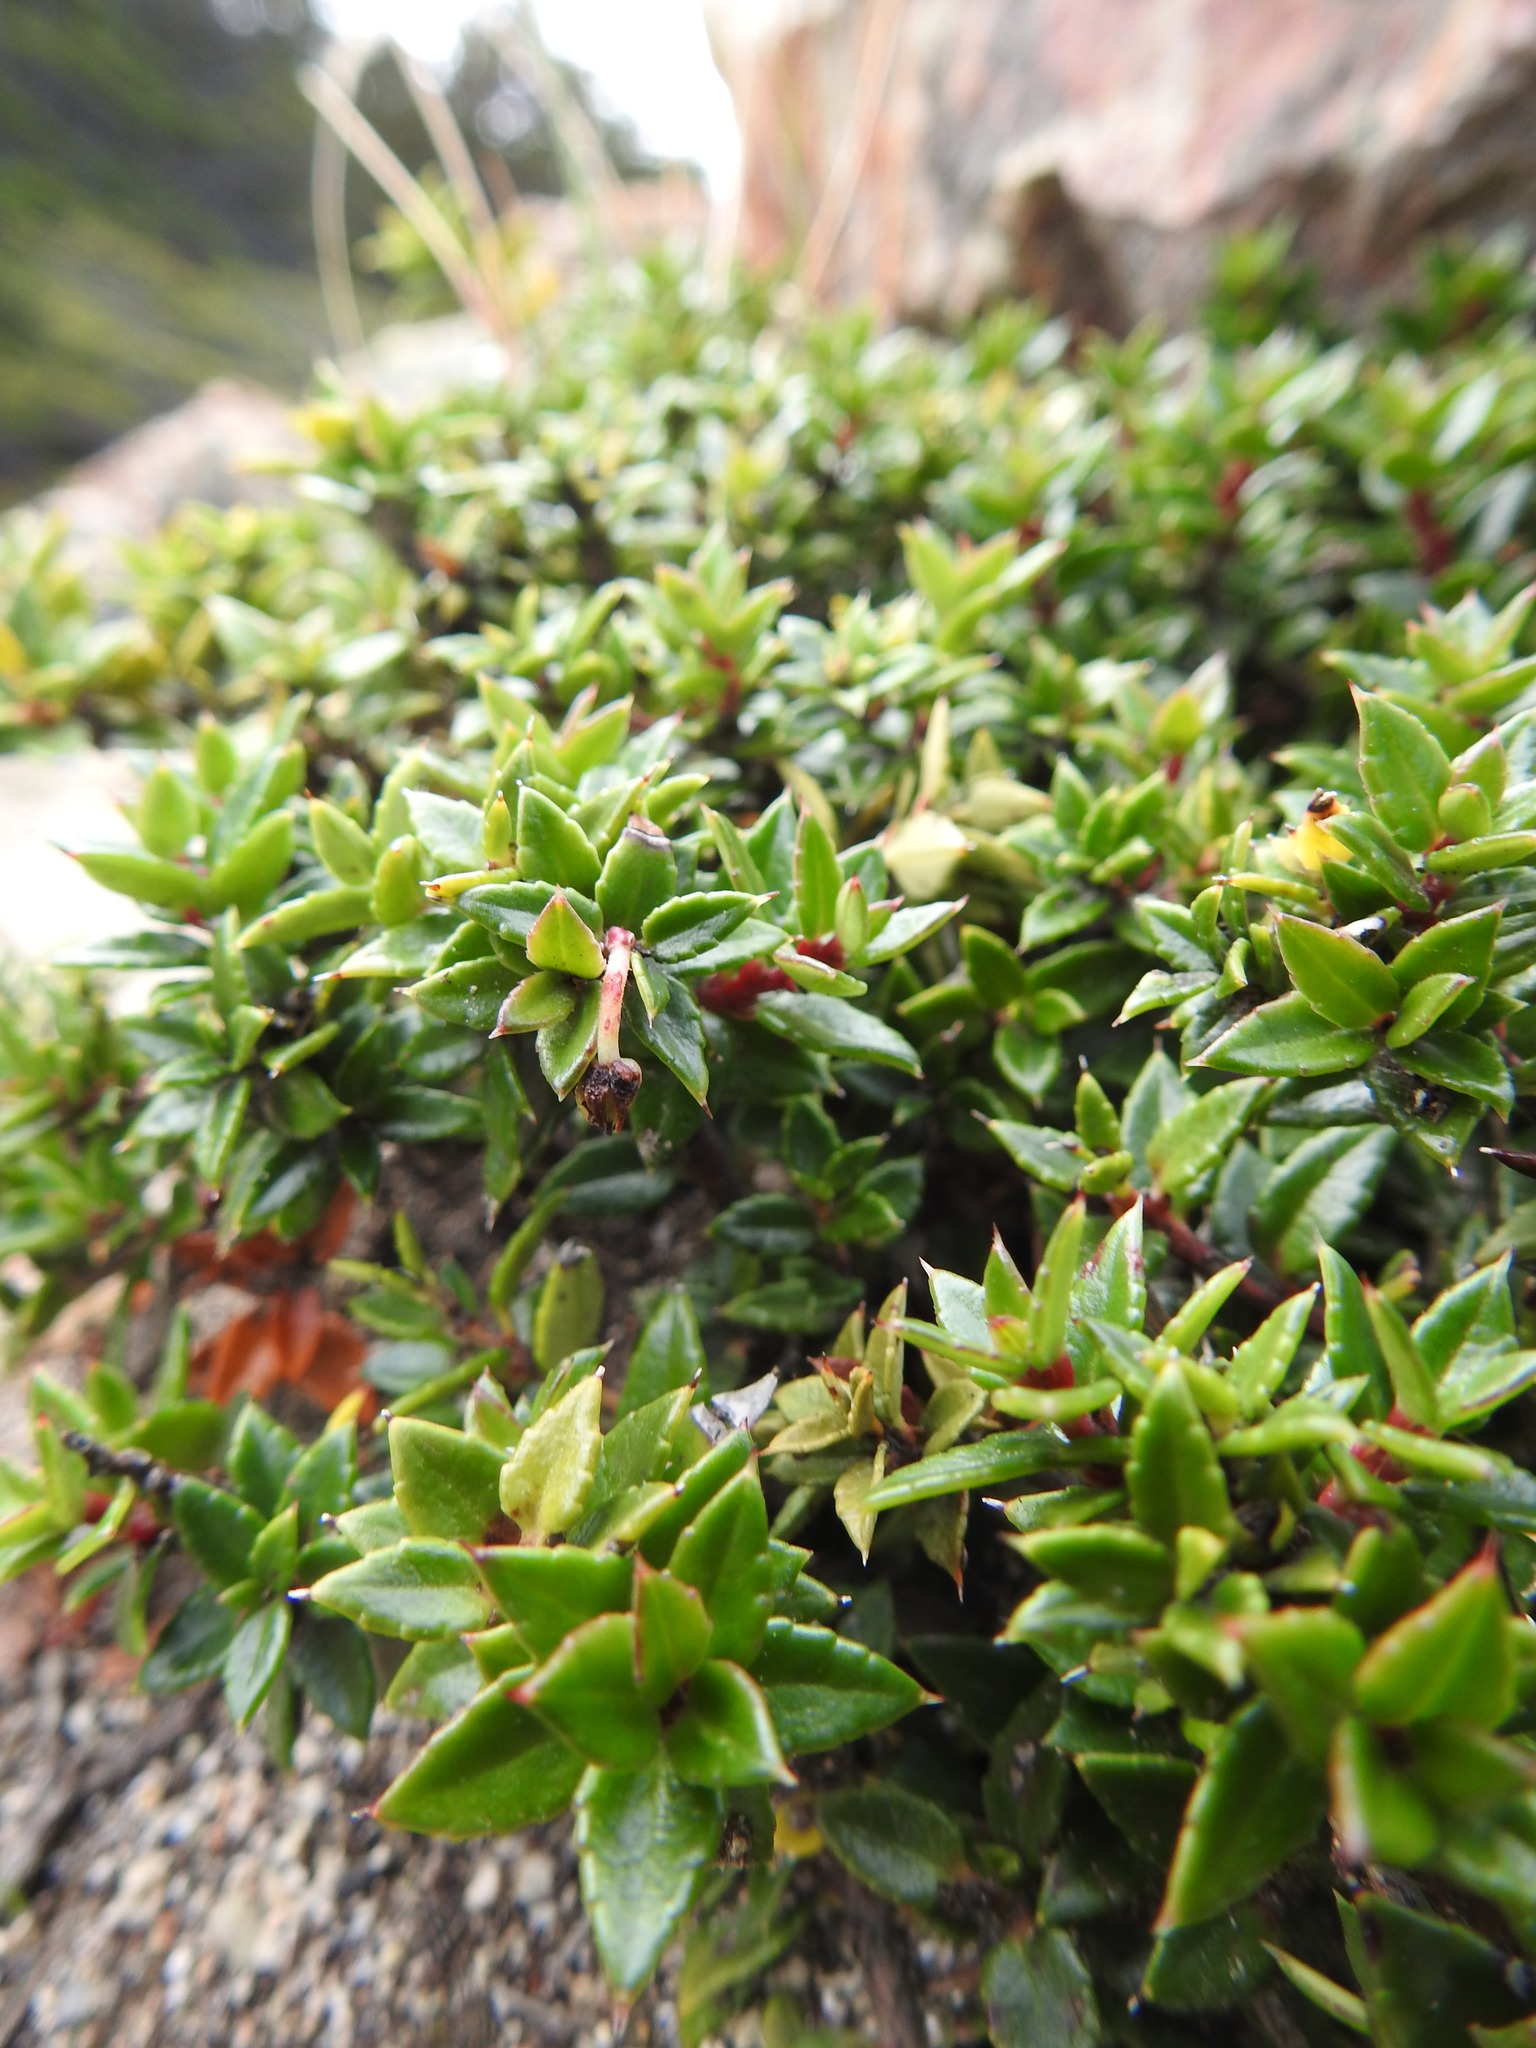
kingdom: Plantae
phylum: Tracheophyta
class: Magnoliopsida
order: Ericales
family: Ericaceae
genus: Gaultheria
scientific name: Gaultheria mucronata
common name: Prickly heath
